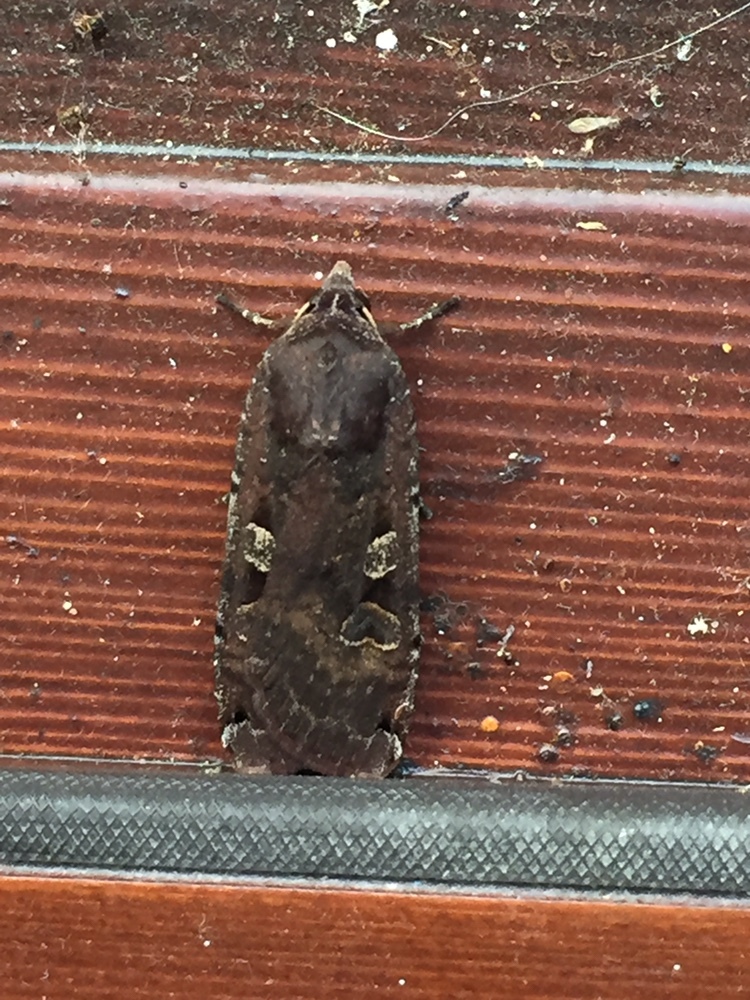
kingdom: Animalia
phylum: Arthropoda
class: Insecta
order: Lepidoptera
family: Noctuidae
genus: Noctua
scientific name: Noctua pronuba
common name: Large yellow underwing
